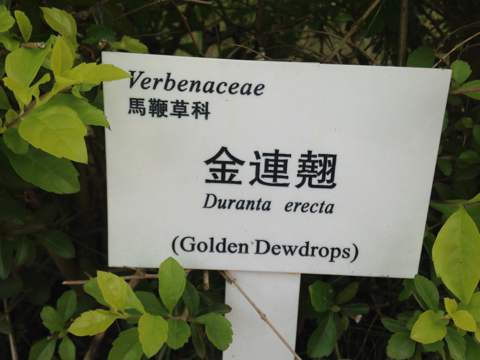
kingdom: Plantae
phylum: Tracheophyta
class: Magnoliopsida
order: Lamiales
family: Verbenaceae
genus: Duranta
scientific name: Duranta erecta
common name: Golden dewdrops
